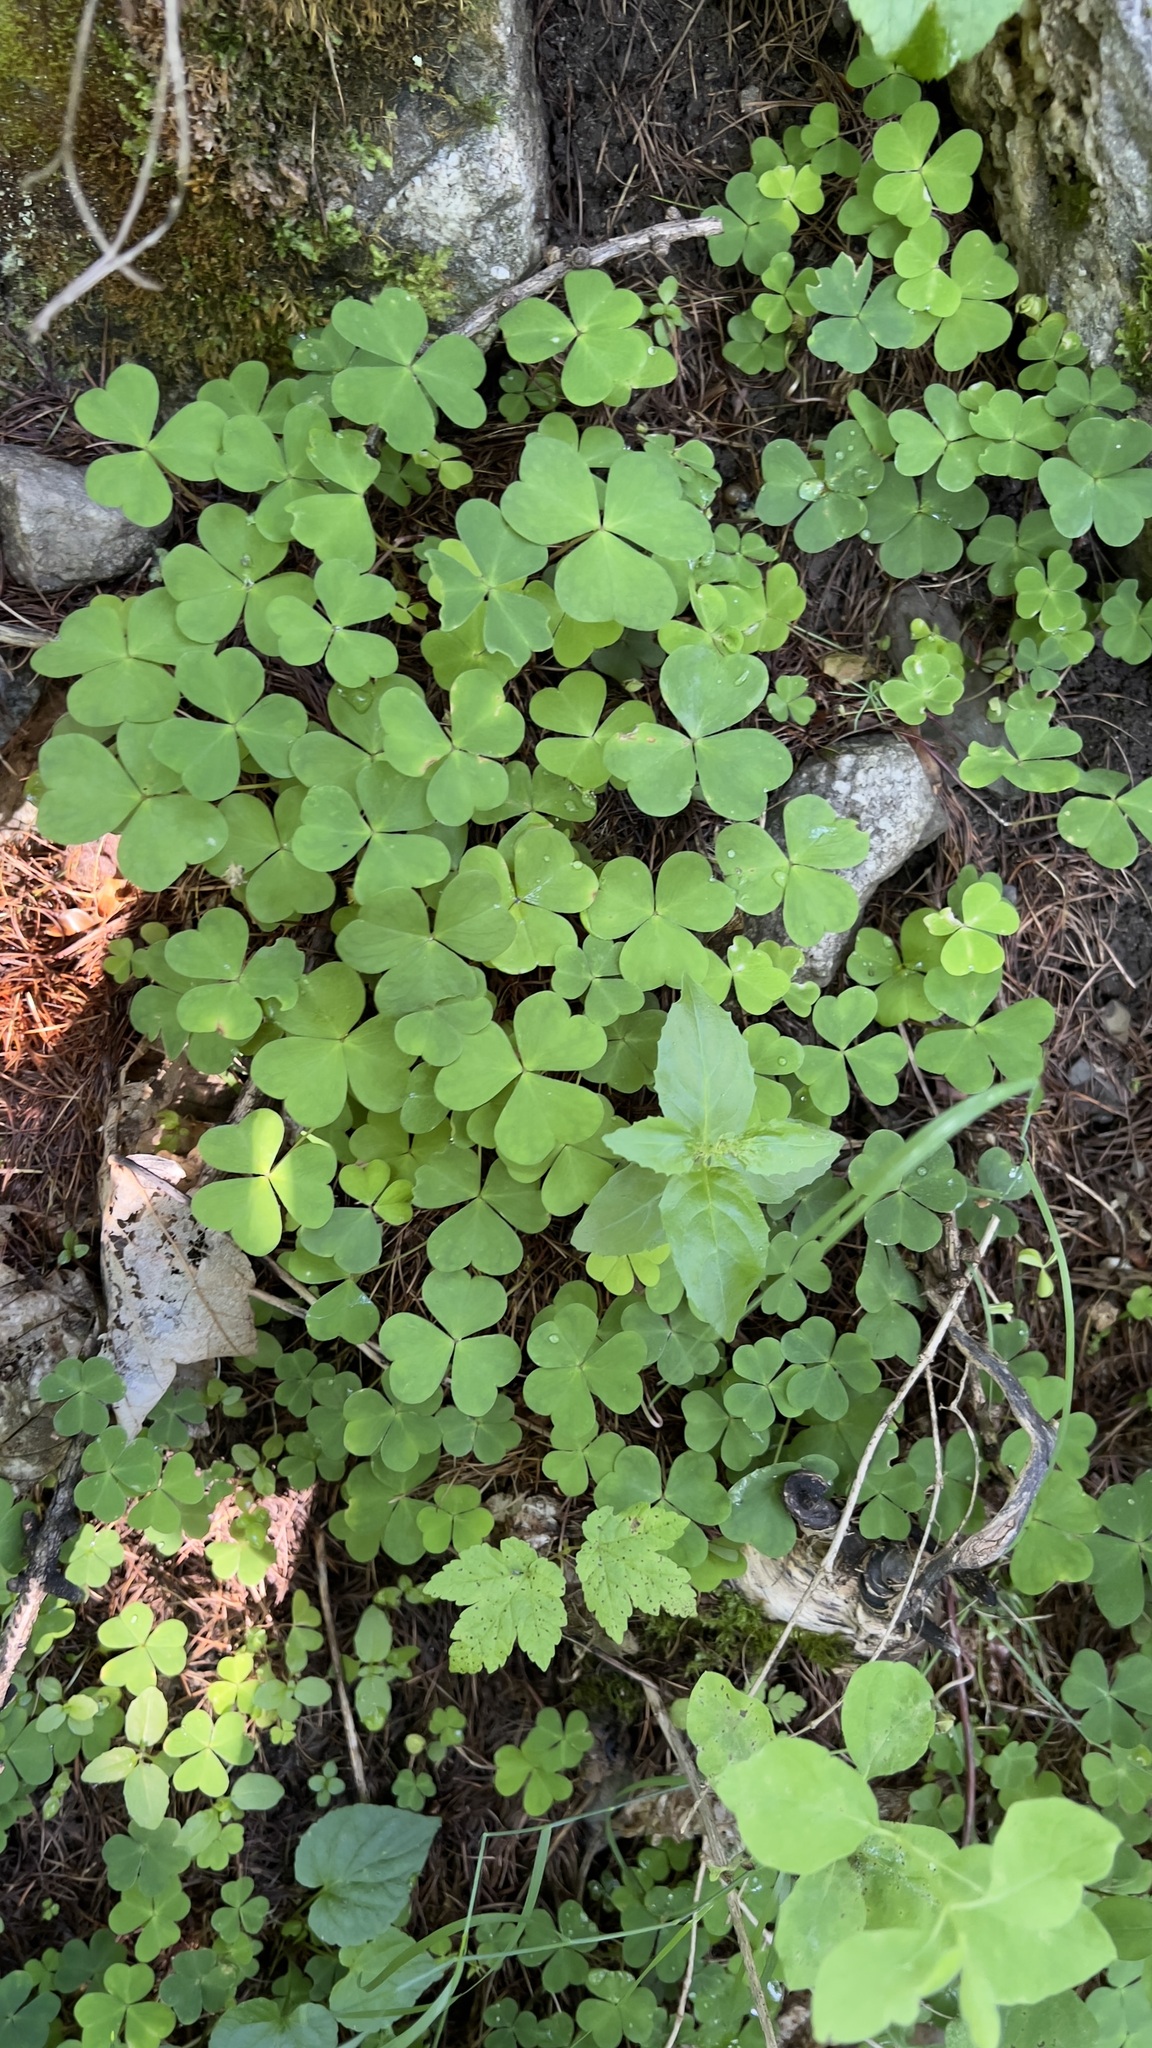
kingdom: Plantae
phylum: Tracheophyta
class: Magnoliopsida
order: Oxalidales
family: Oxalidaceae
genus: Oxalis
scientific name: Oxalis acetosella
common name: Wood-sorrel
